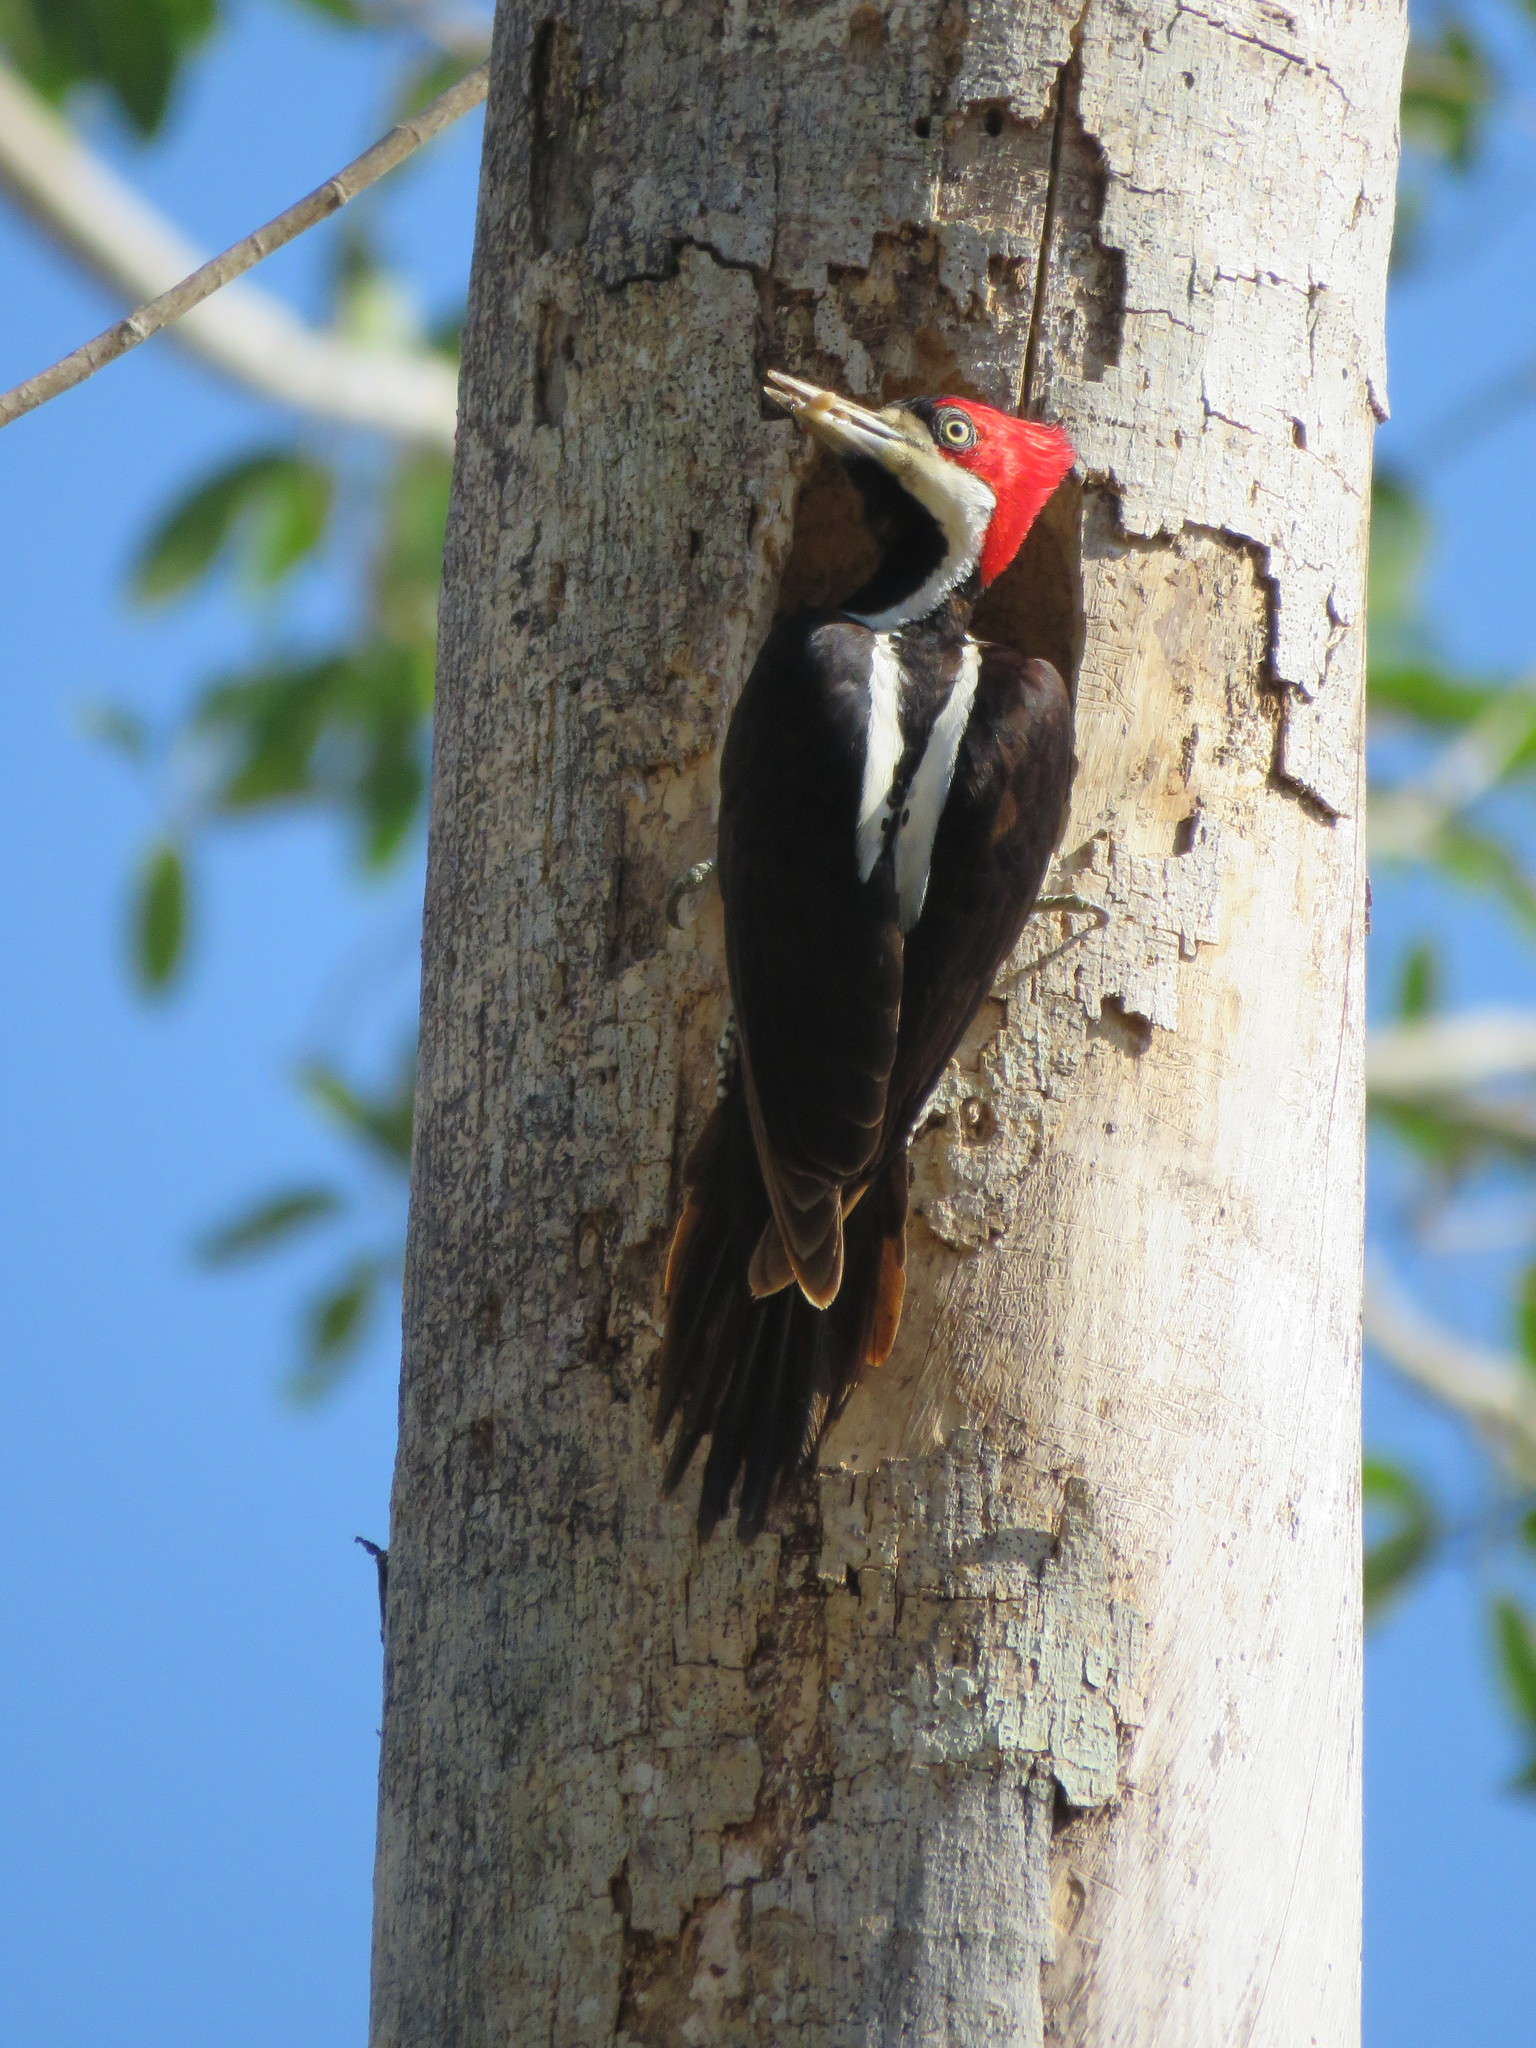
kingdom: Animalia
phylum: Chordata
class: Aves
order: Piciformes
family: Picidae
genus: Campephilus
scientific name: Campephilus melanoleucos
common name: Crimson-crested woodpecker
